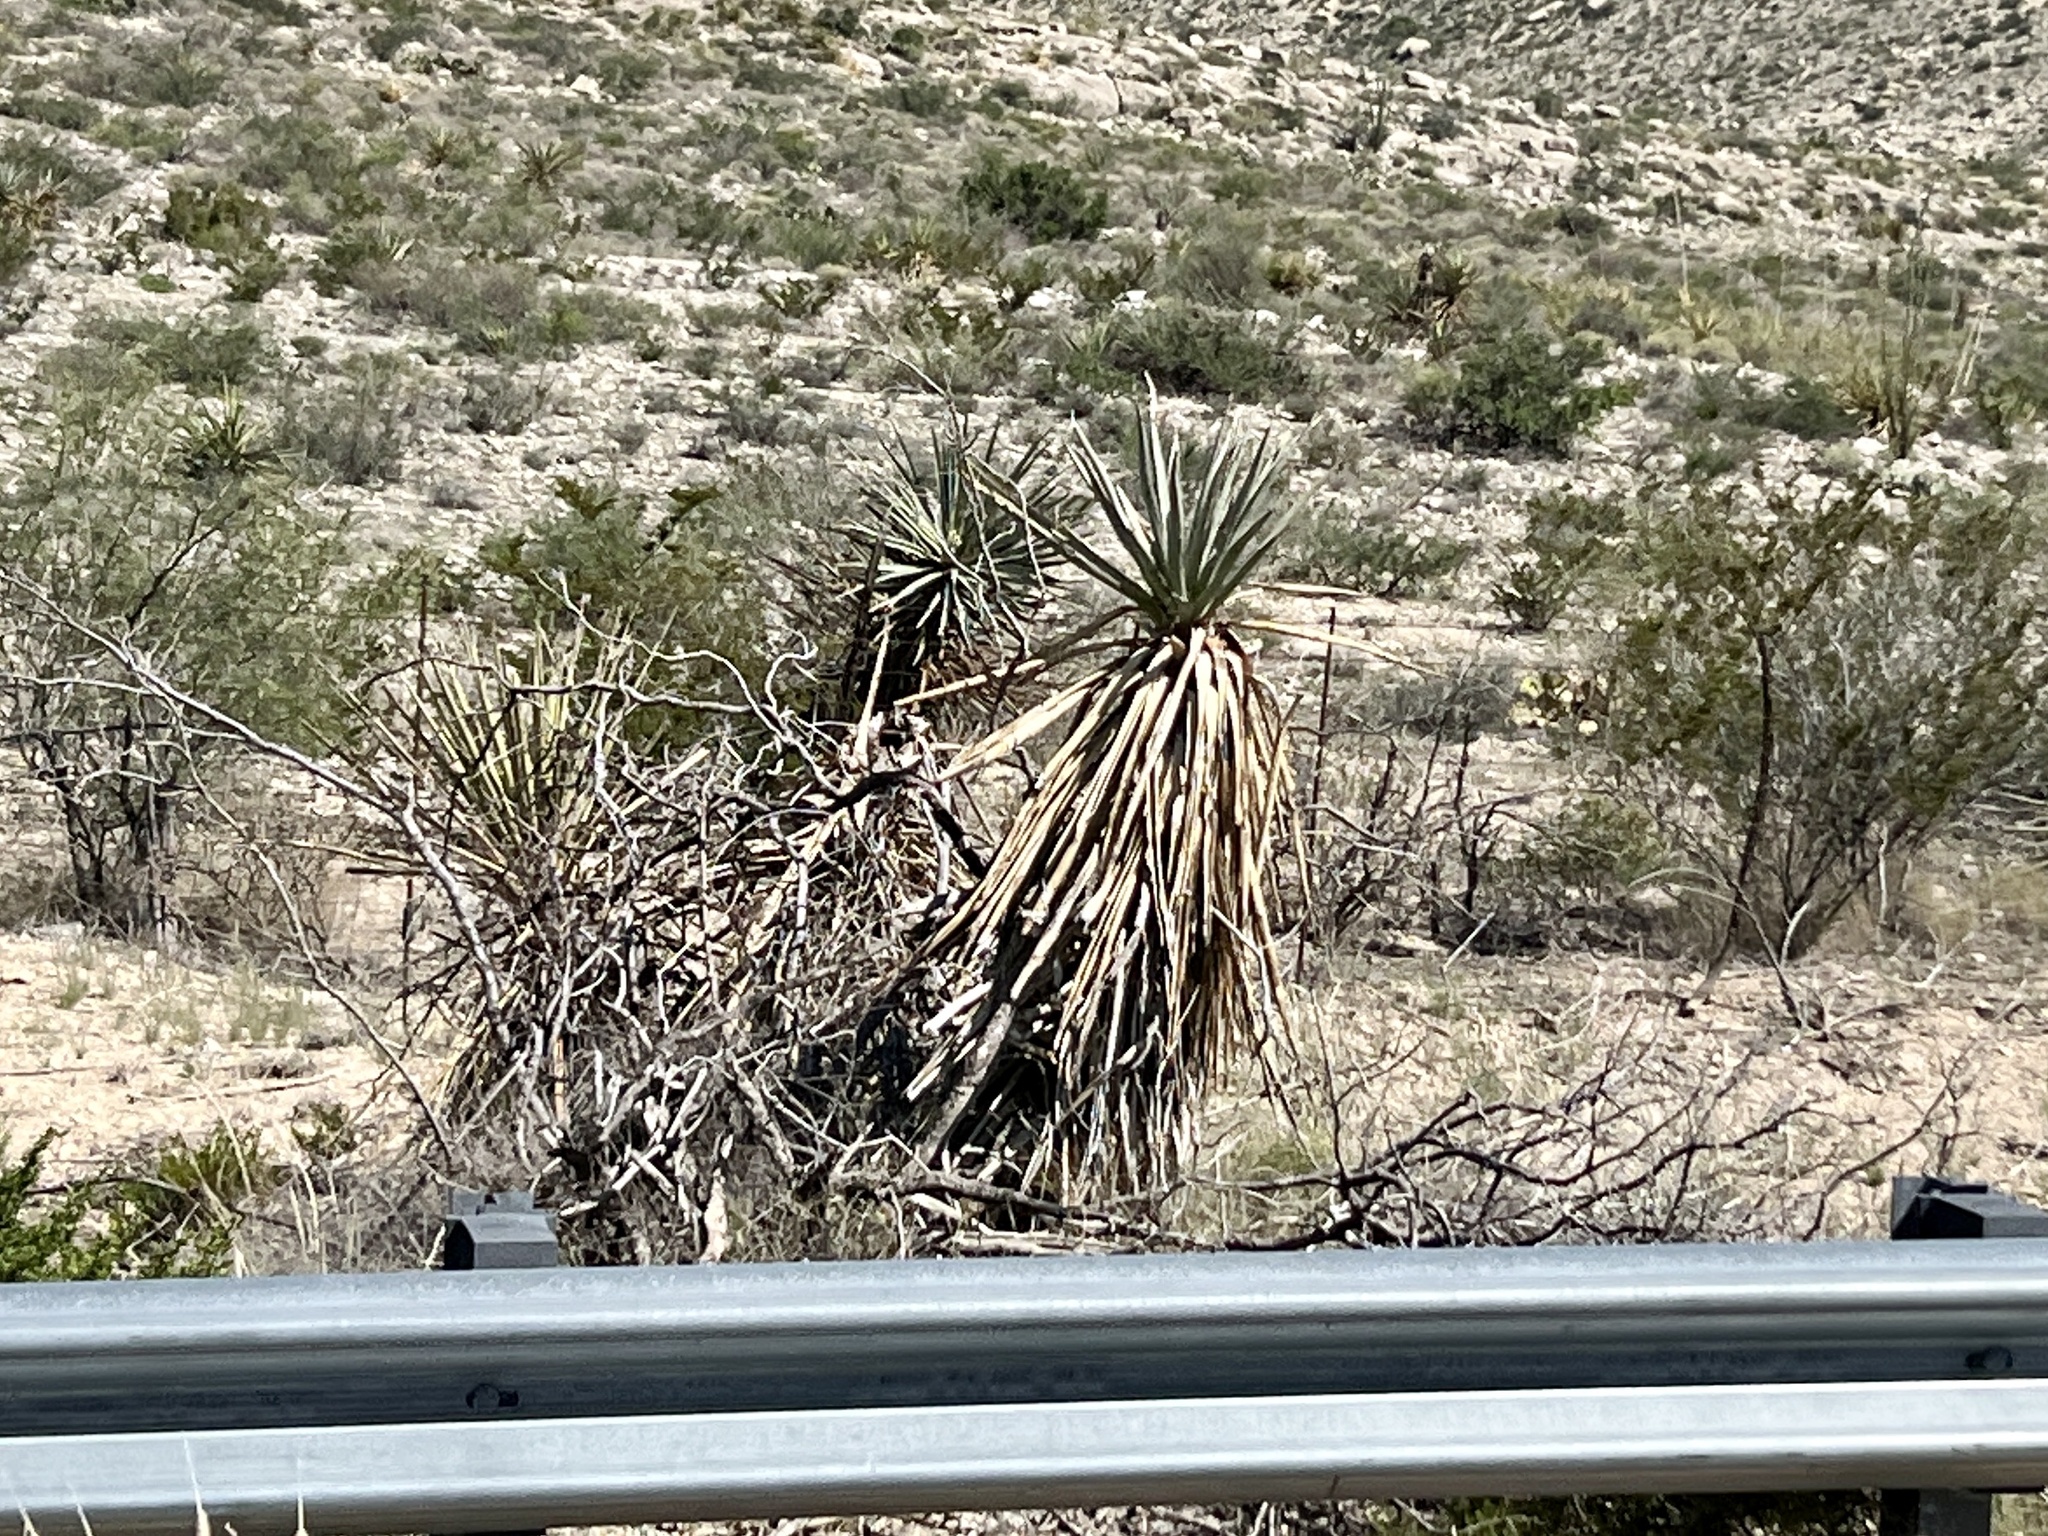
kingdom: Plantae
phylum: Tracheophyta
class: Liliopsida
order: Asparagales
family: Asparagaceae
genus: Yucca
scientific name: Yucca treculiana
